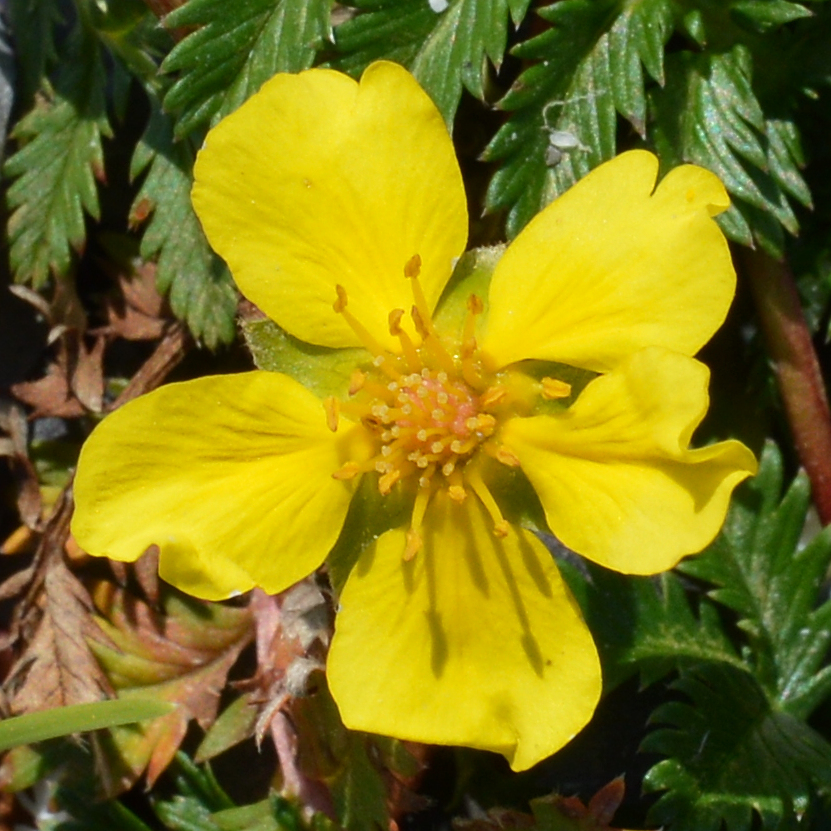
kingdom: Plantae
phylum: Tracheophyta
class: Magnoliopsida
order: Rosales
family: Rosaceae
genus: Potentilla
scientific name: Potentilla argentea
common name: Hoary cinquefoil
